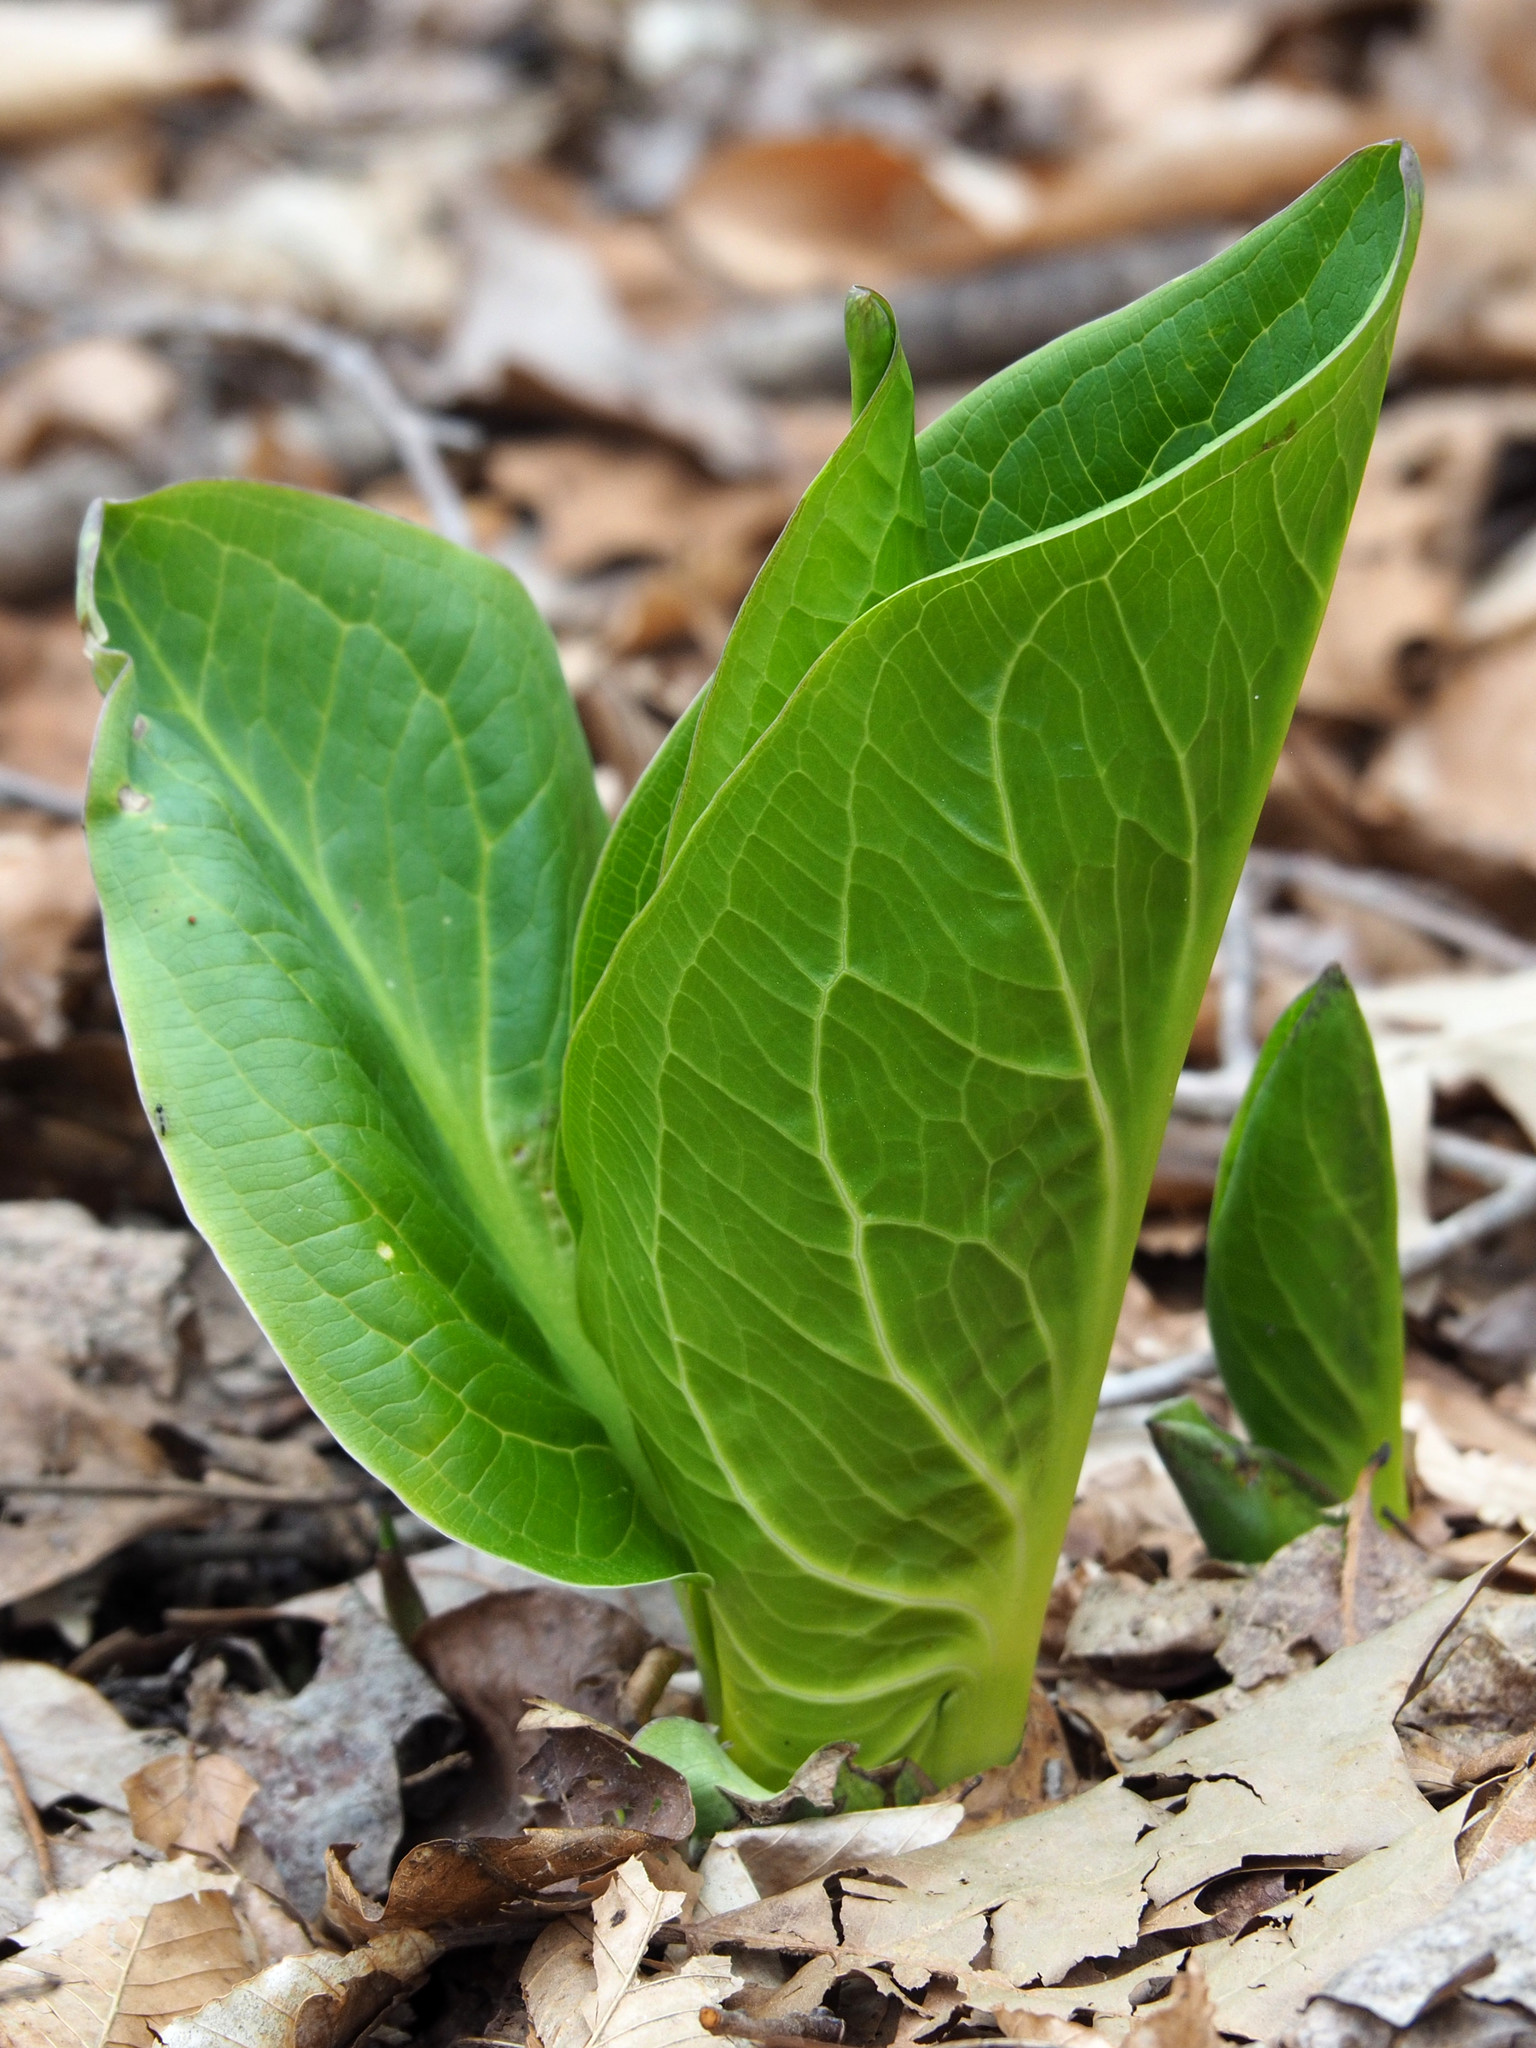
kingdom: Plantae
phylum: Tracheophyta
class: Liliopsida
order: Alismatales
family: Araceae
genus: Symplocarpus
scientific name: Symplocarpus foetidus
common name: Eastern skunk cabbage
